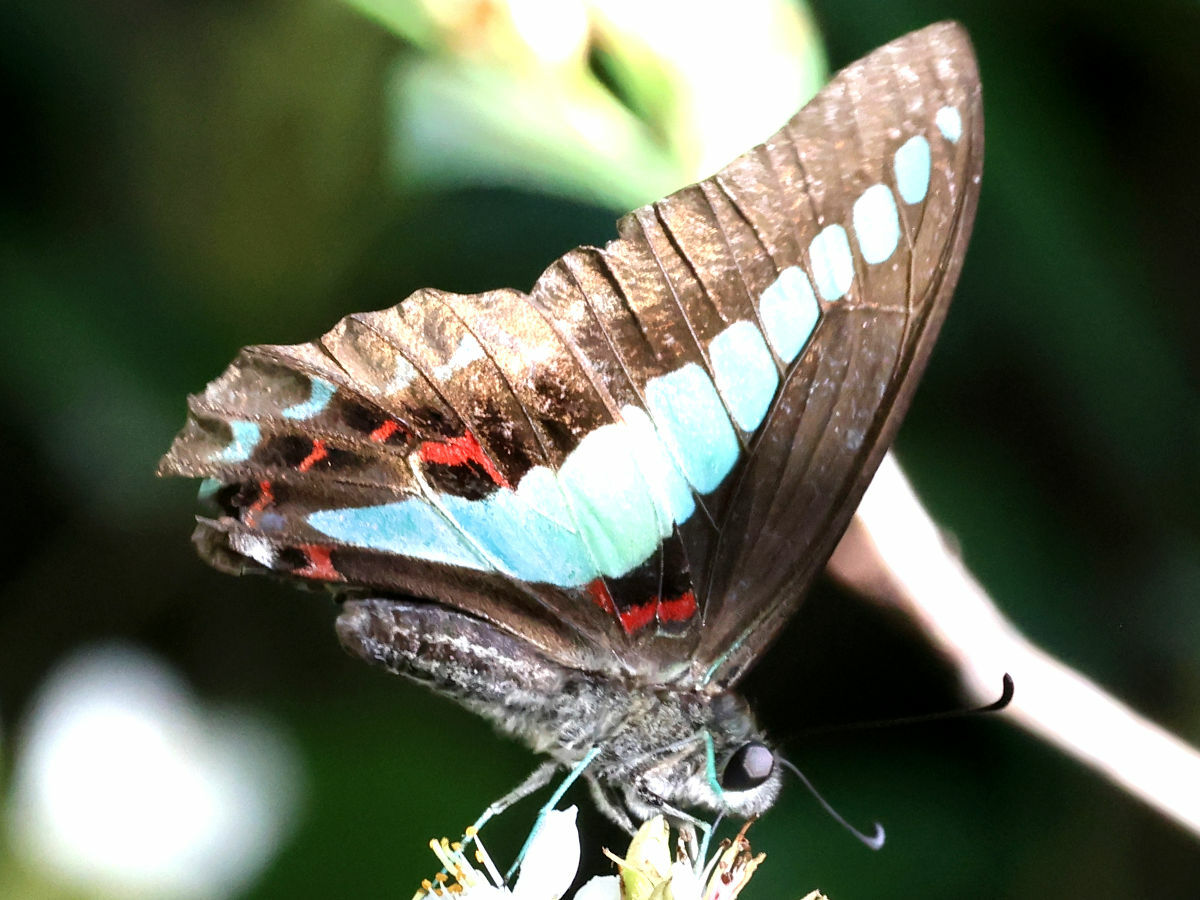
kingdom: Fungi
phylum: Ascomycota
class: Sordariomycetes
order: Microascales
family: Microascaceae
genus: Graphium
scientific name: Graphium sarpedon
